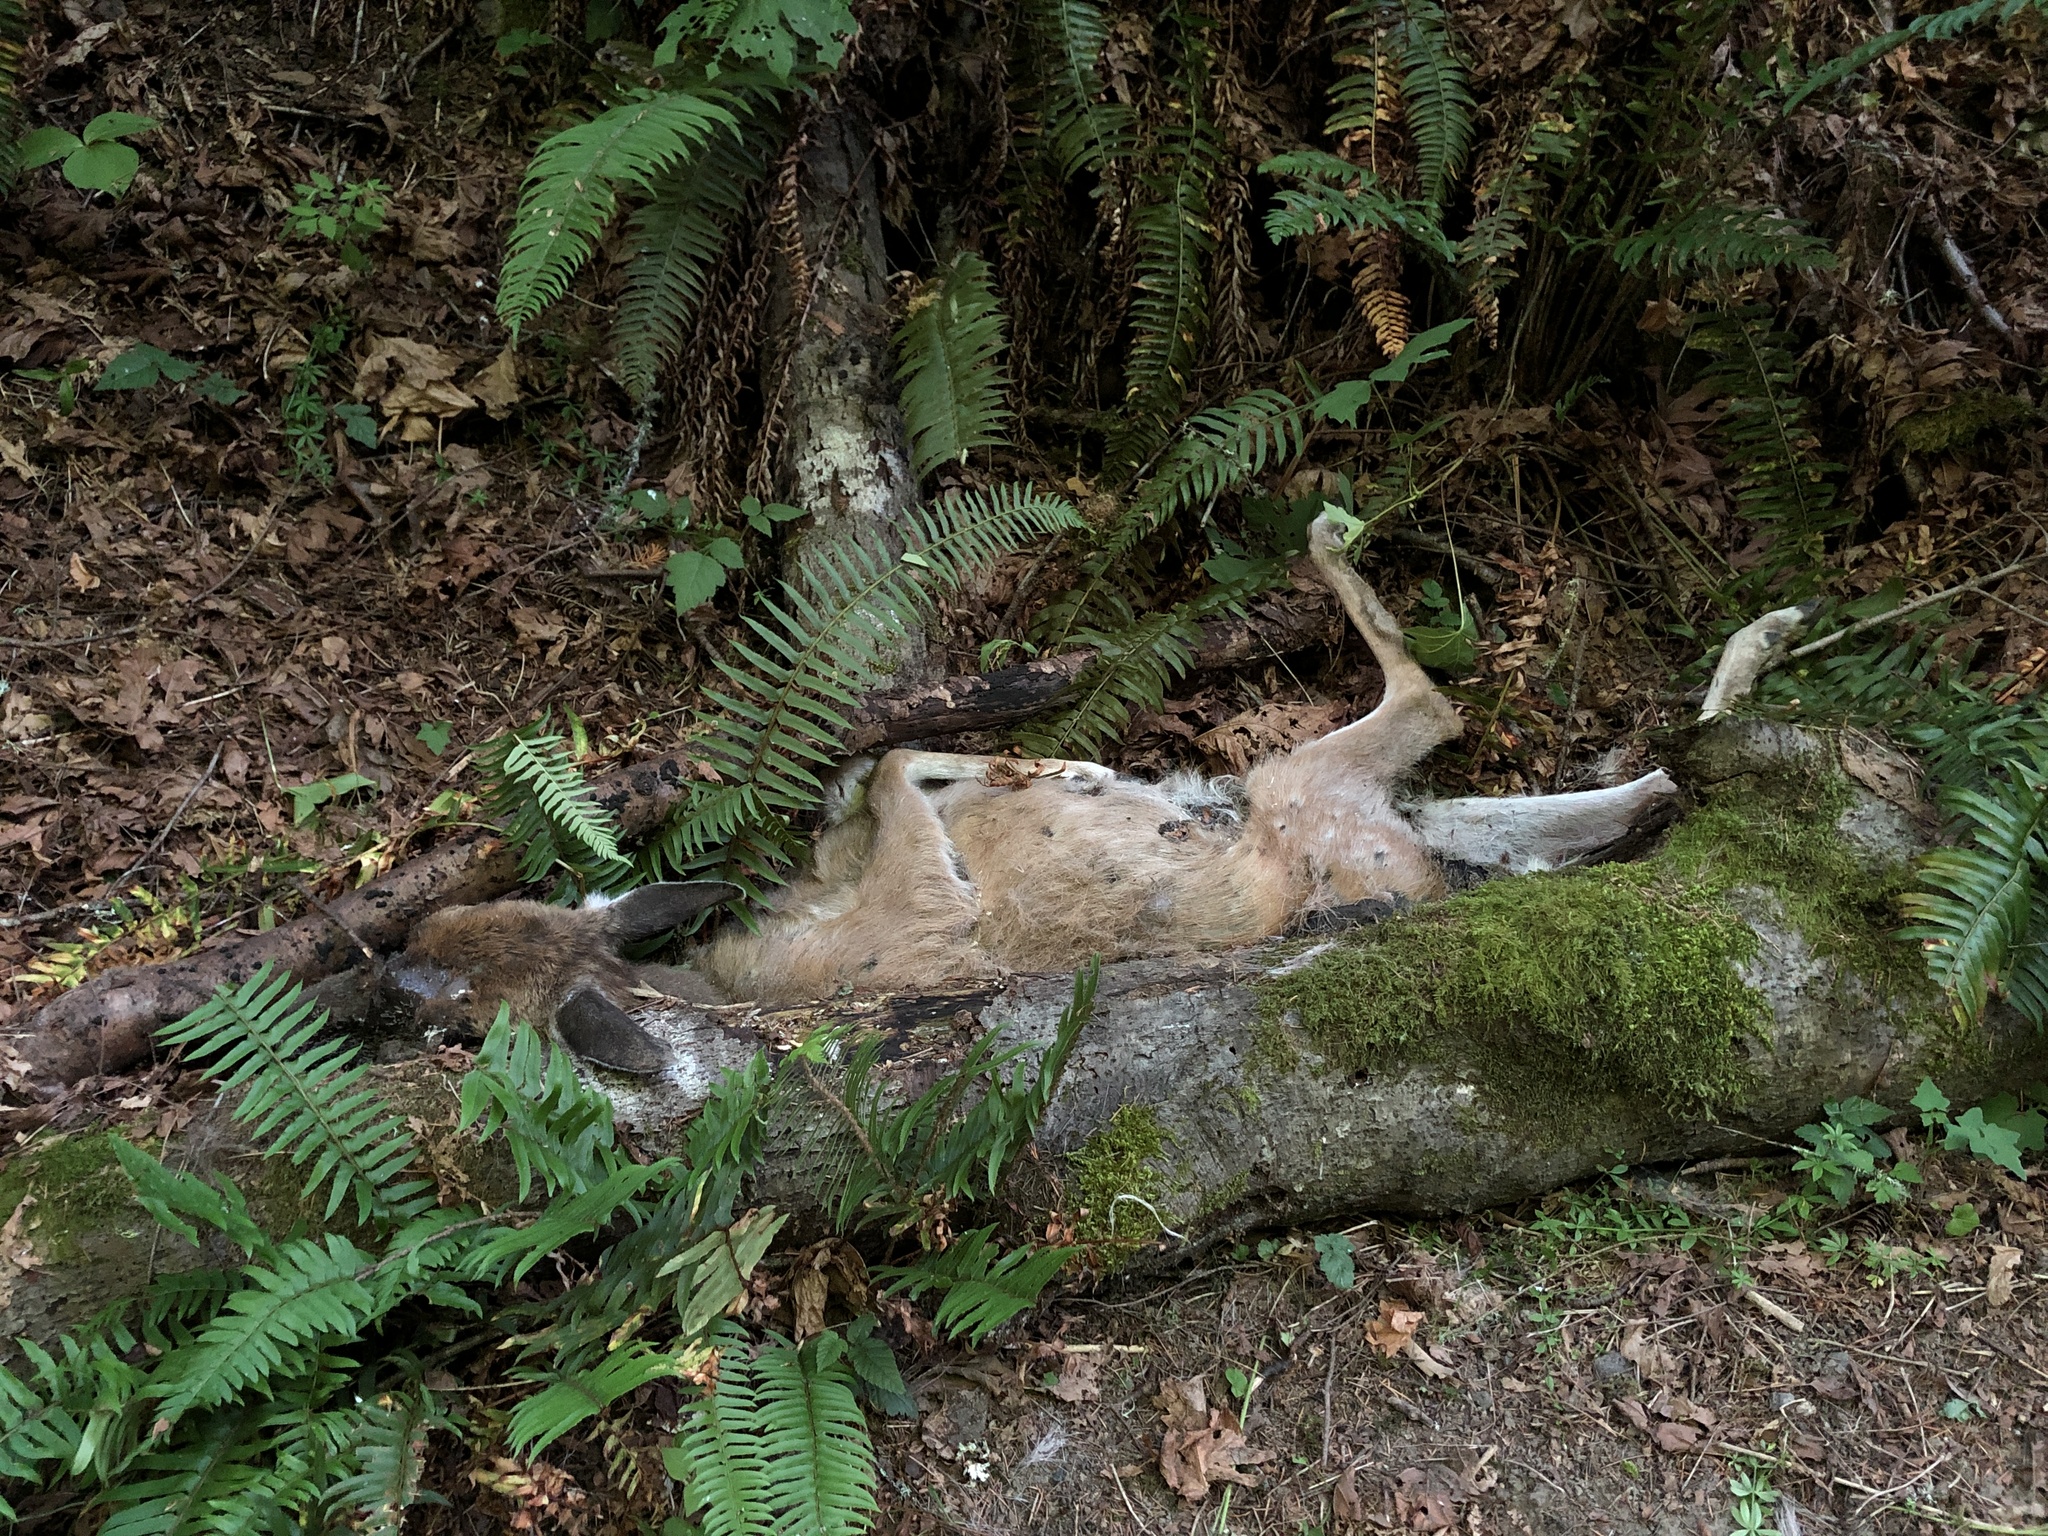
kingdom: Animalia
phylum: Chordata
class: Mammalia
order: Artiodactyla
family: Cervidae
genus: Odocoileus
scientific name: Odocoileus hemionus
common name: Mule deer
